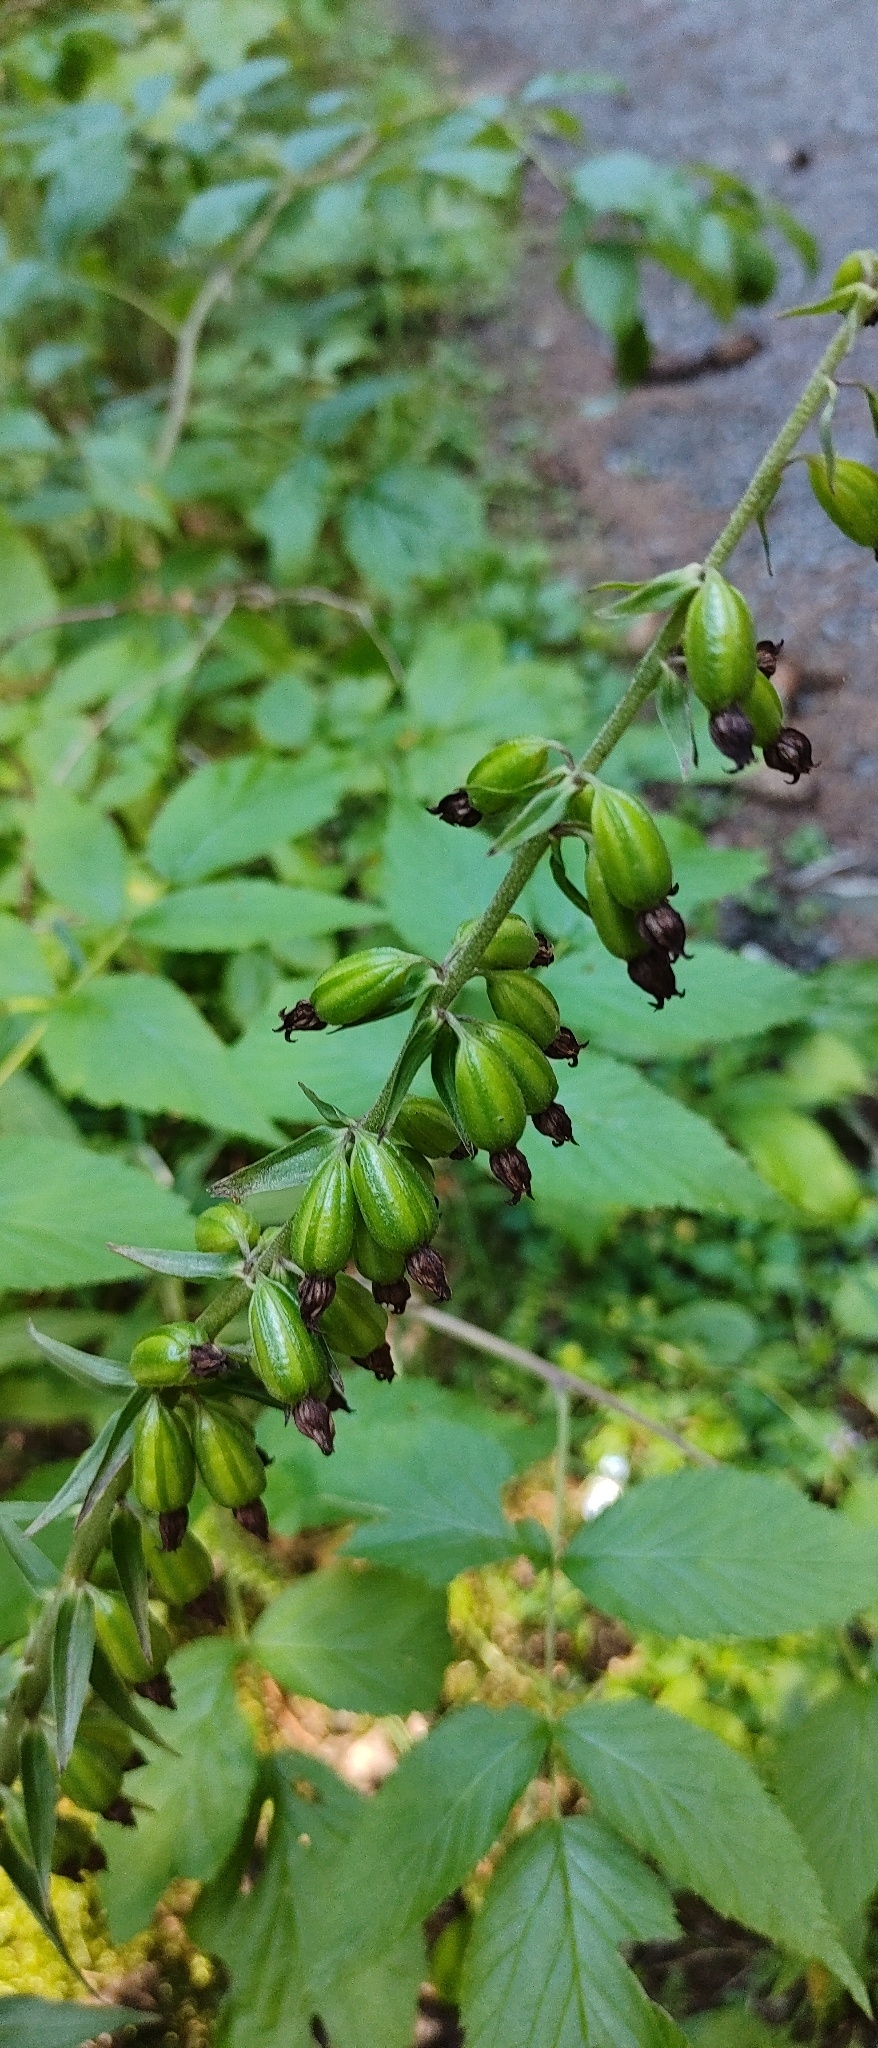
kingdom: Plantae
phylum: Tracheophyta
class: Liliopsida
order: Asparagales
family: Orchidaceae
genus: Epipactis
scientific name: Epipactis helleborine
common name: Broad-leaved helleborine
